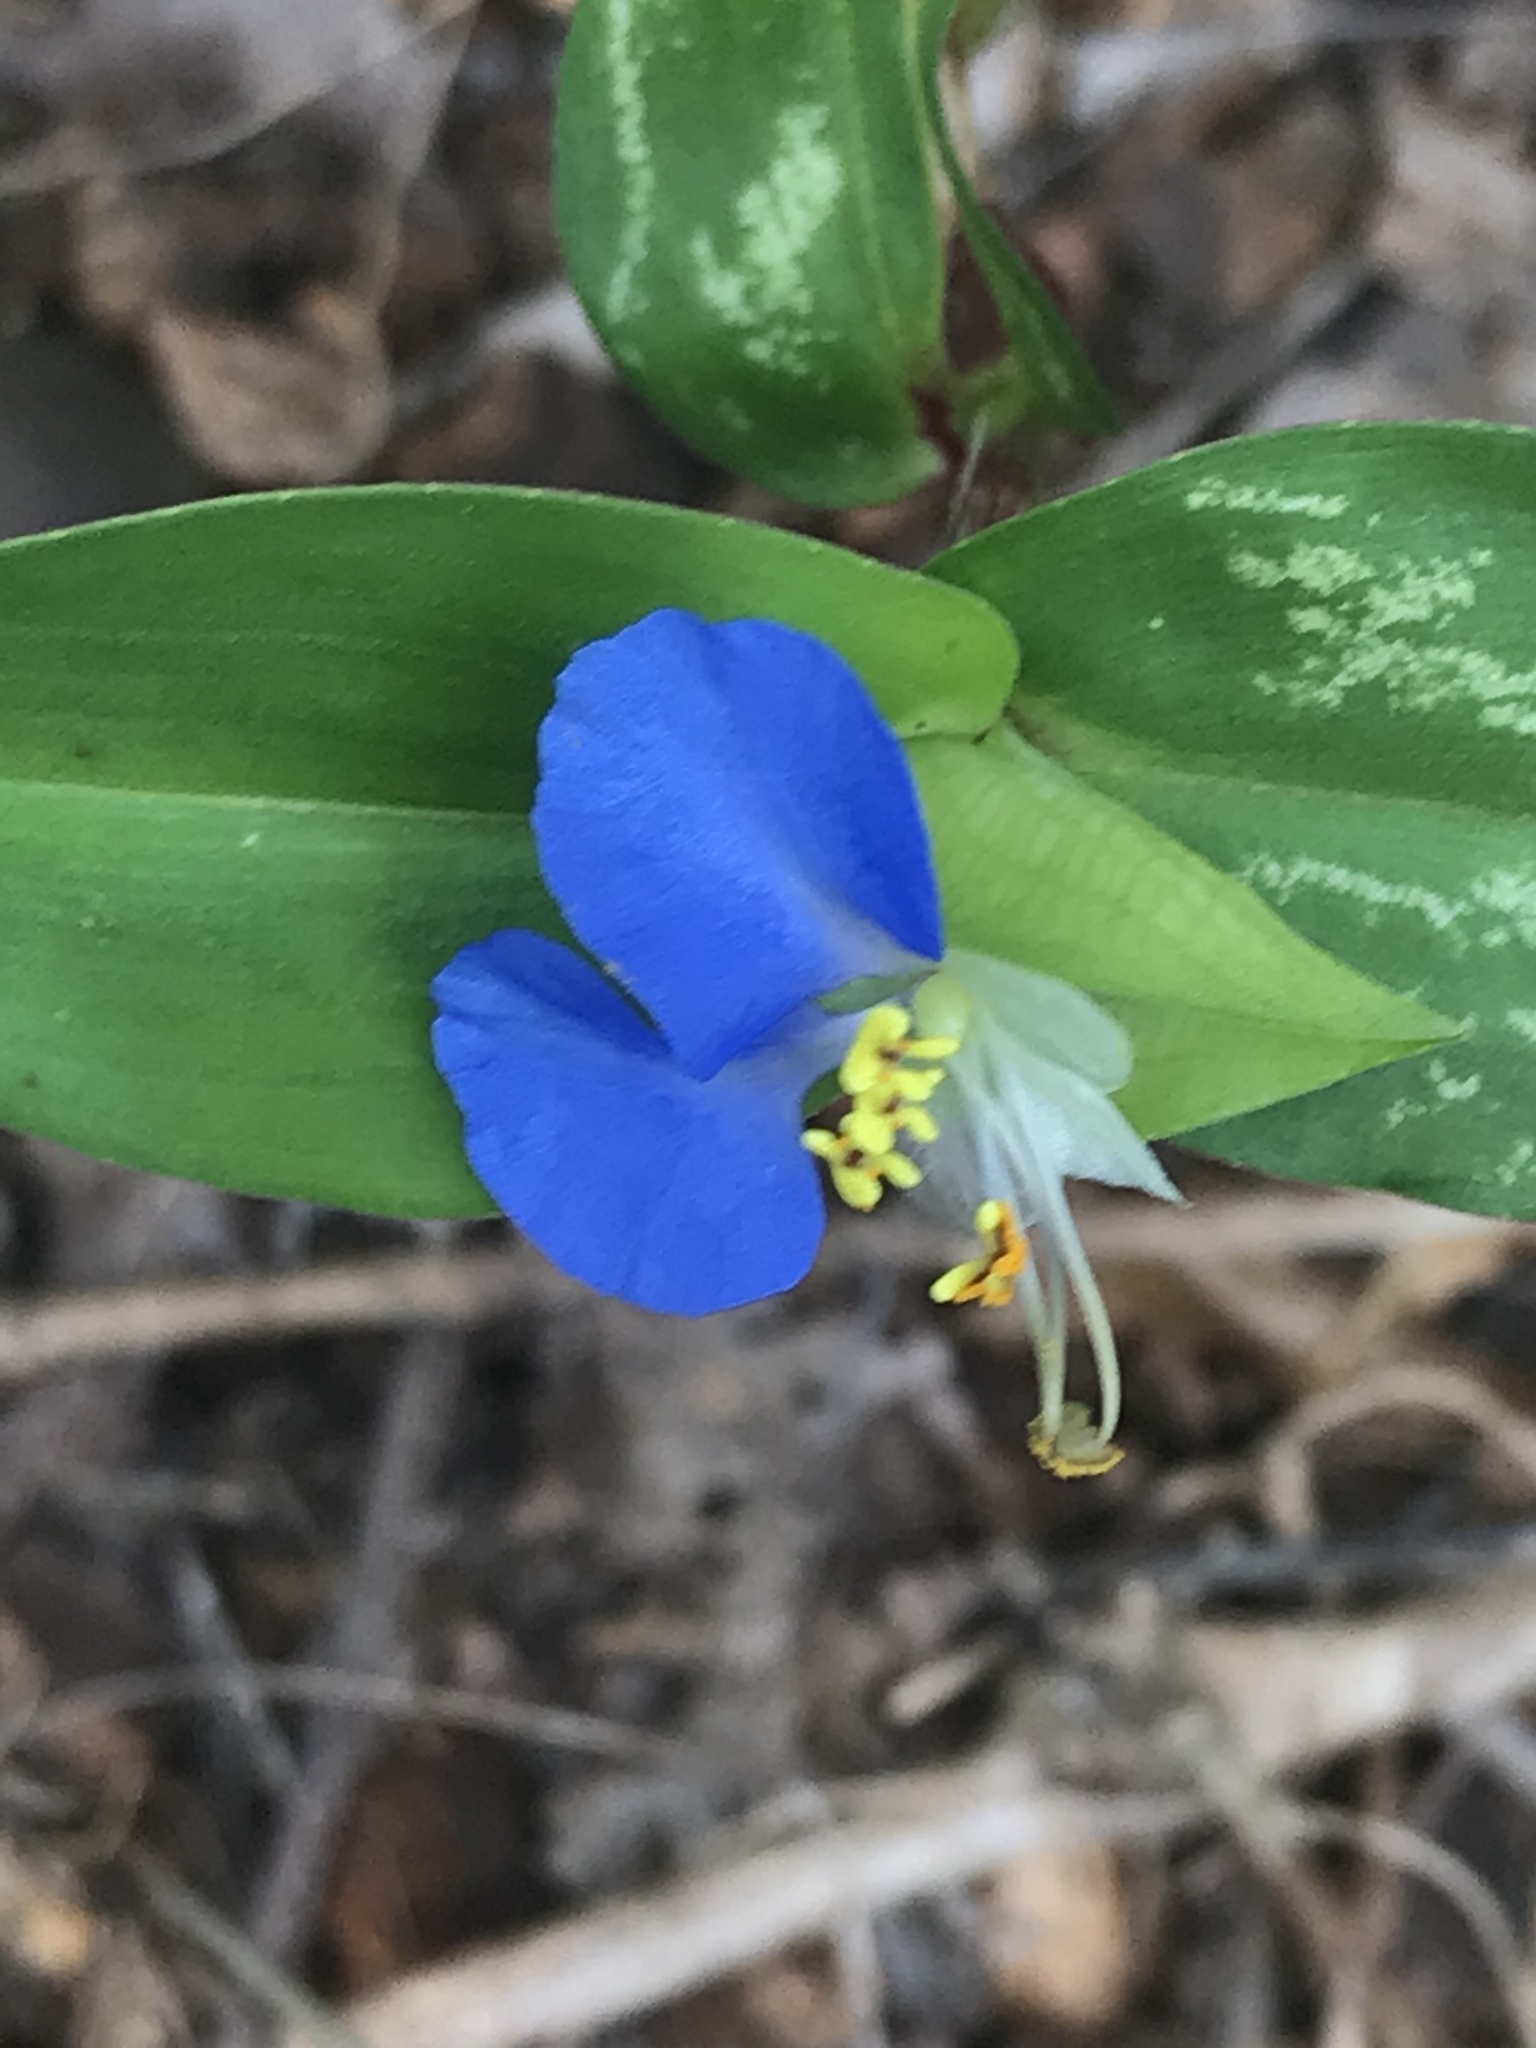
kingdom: Plantae
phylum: Tracheophyta
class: Liliopsida
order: Commelinales
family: Commelinaceae
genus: Commelina
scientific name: Commelina communis
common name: Asiatic dayflower
